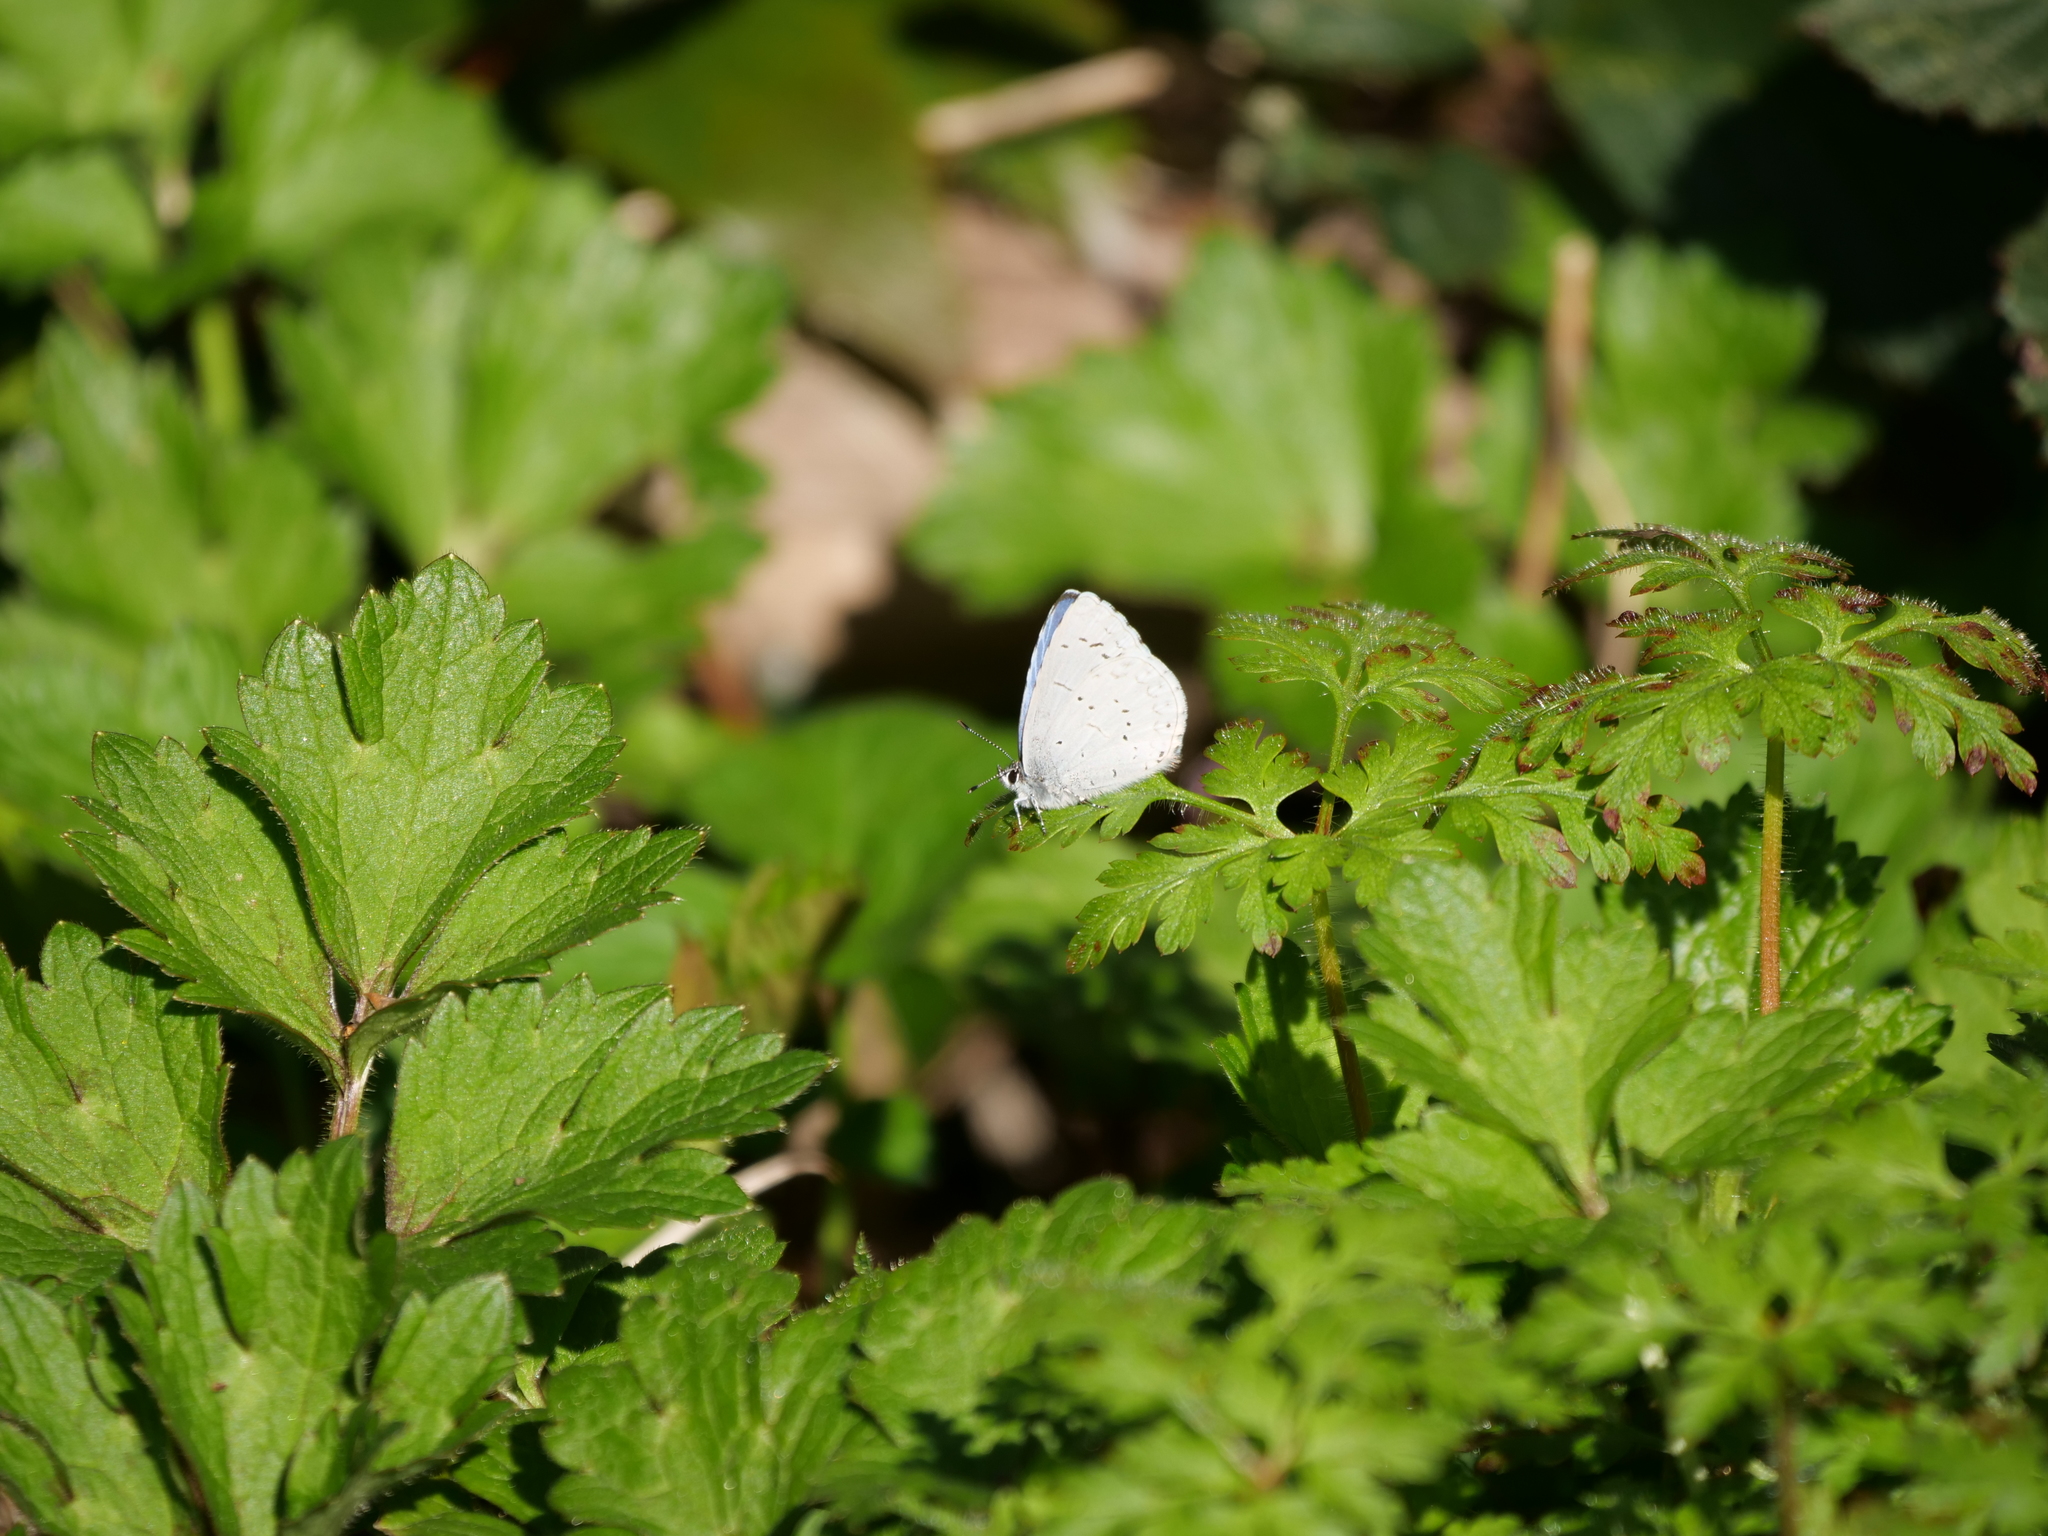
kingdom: Animalia
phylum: Arthropoda
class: Insecta
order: Lepidoptera
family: Lycaenidae
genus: Celastrina
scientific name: Celastrina ladon
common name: Spring azure
